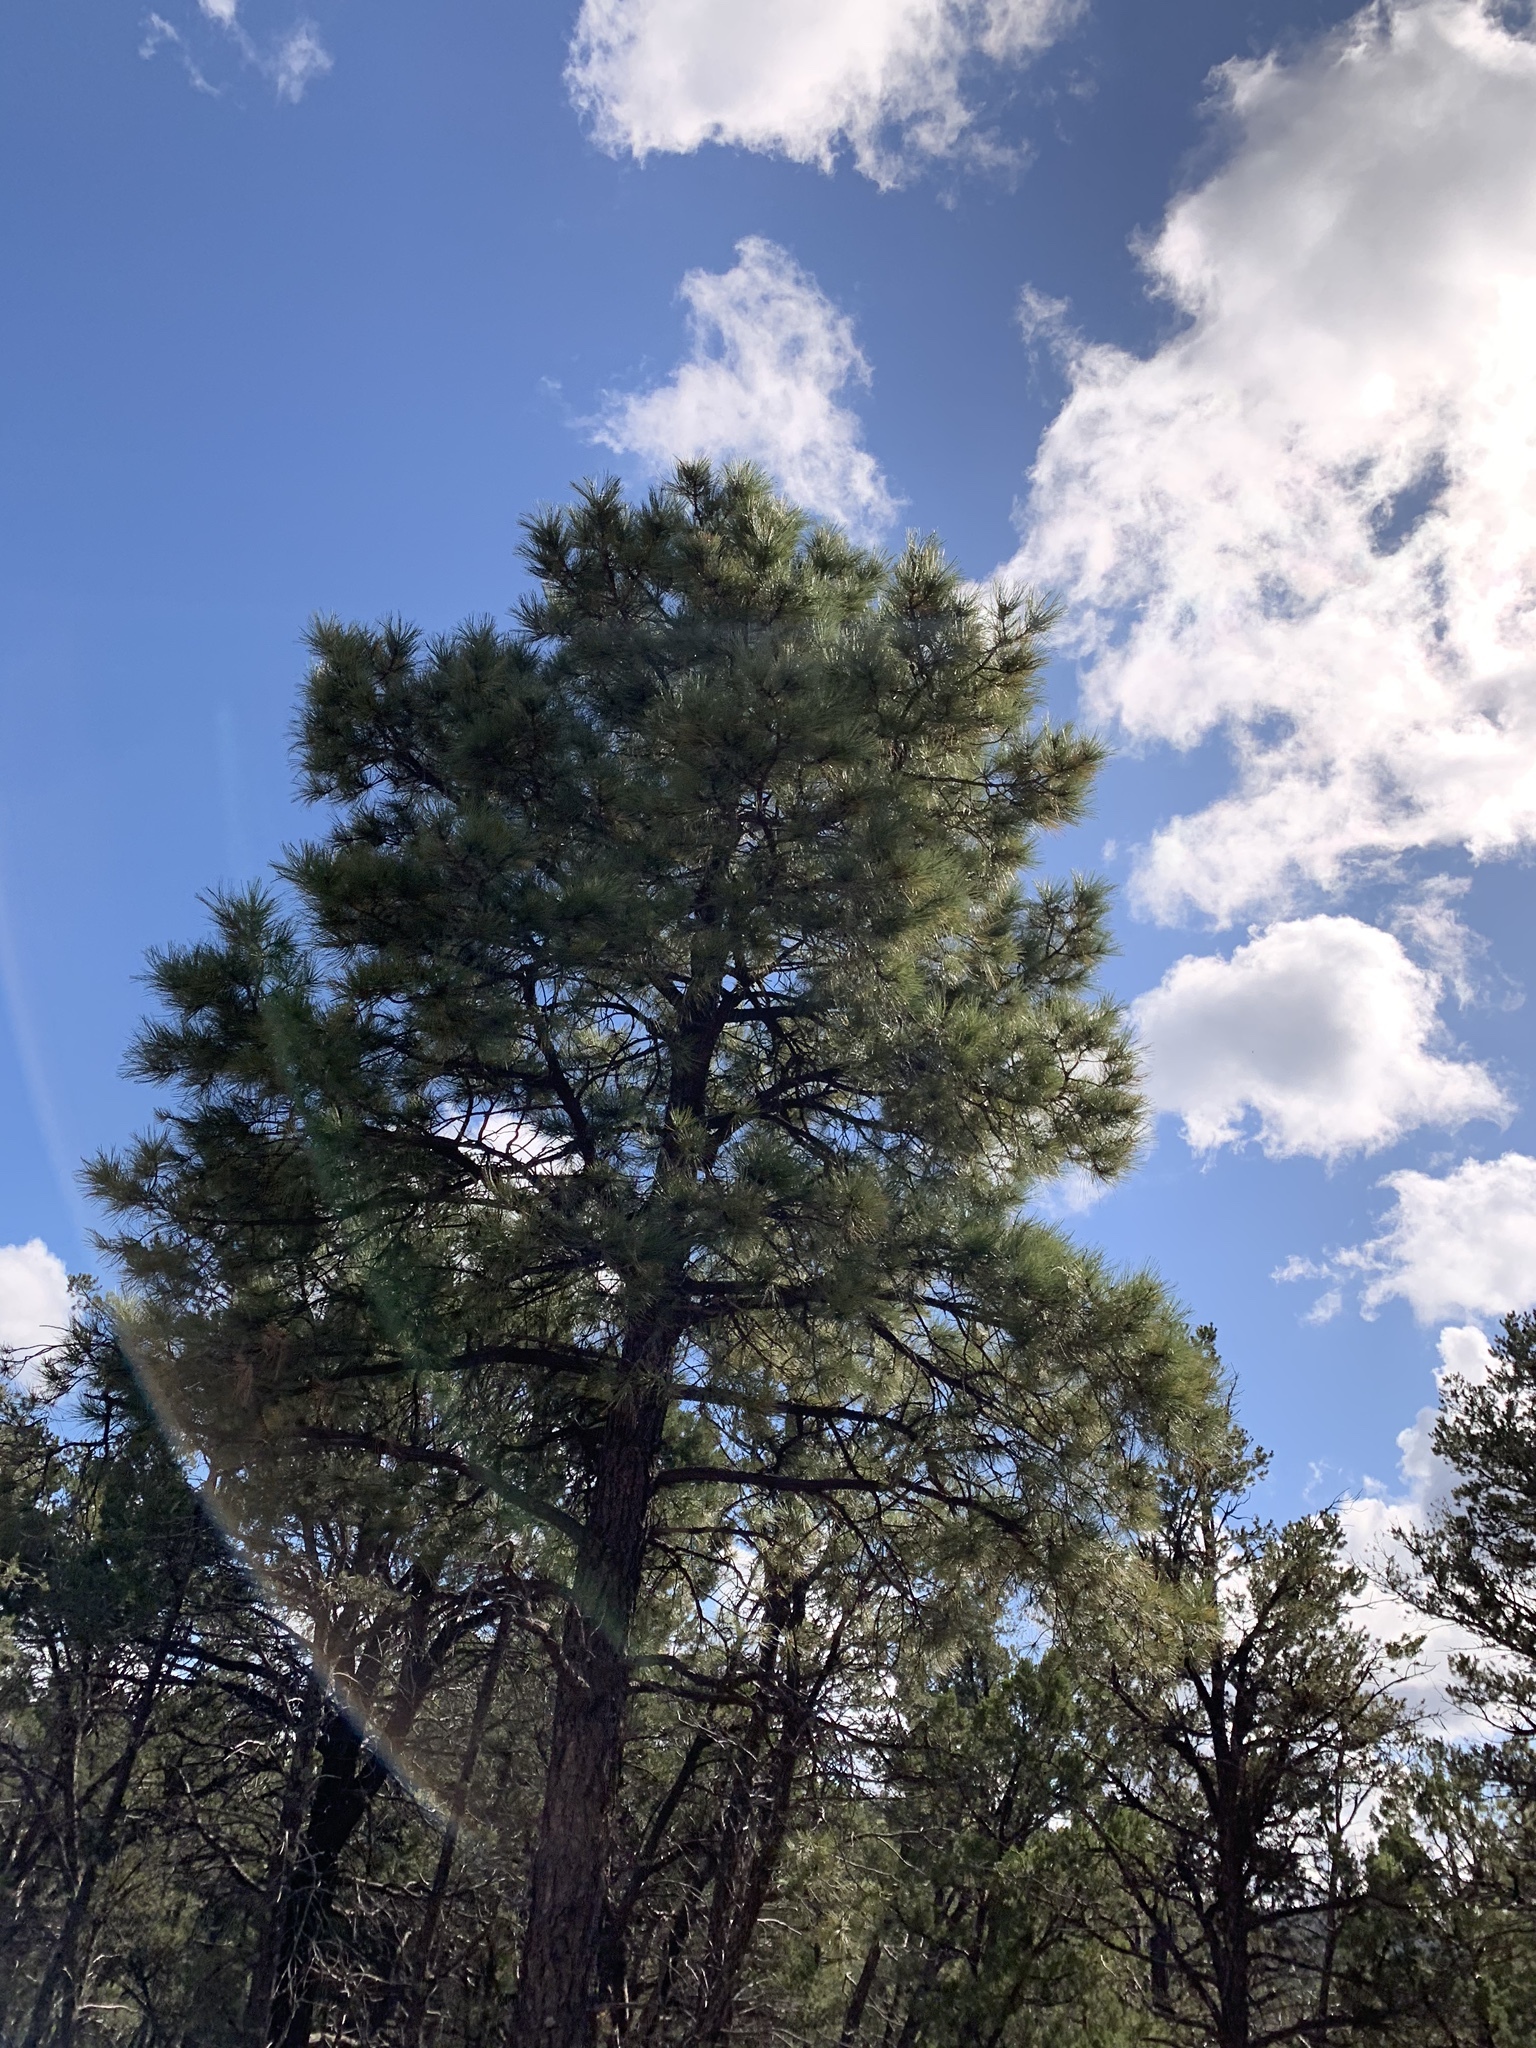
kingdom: Plantae
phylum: Tracheophyta
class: Pinopsida
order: Pinales
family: Pinaceae
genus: Pinus
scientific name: Pinus ponderosa
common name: Western yellow-pine
